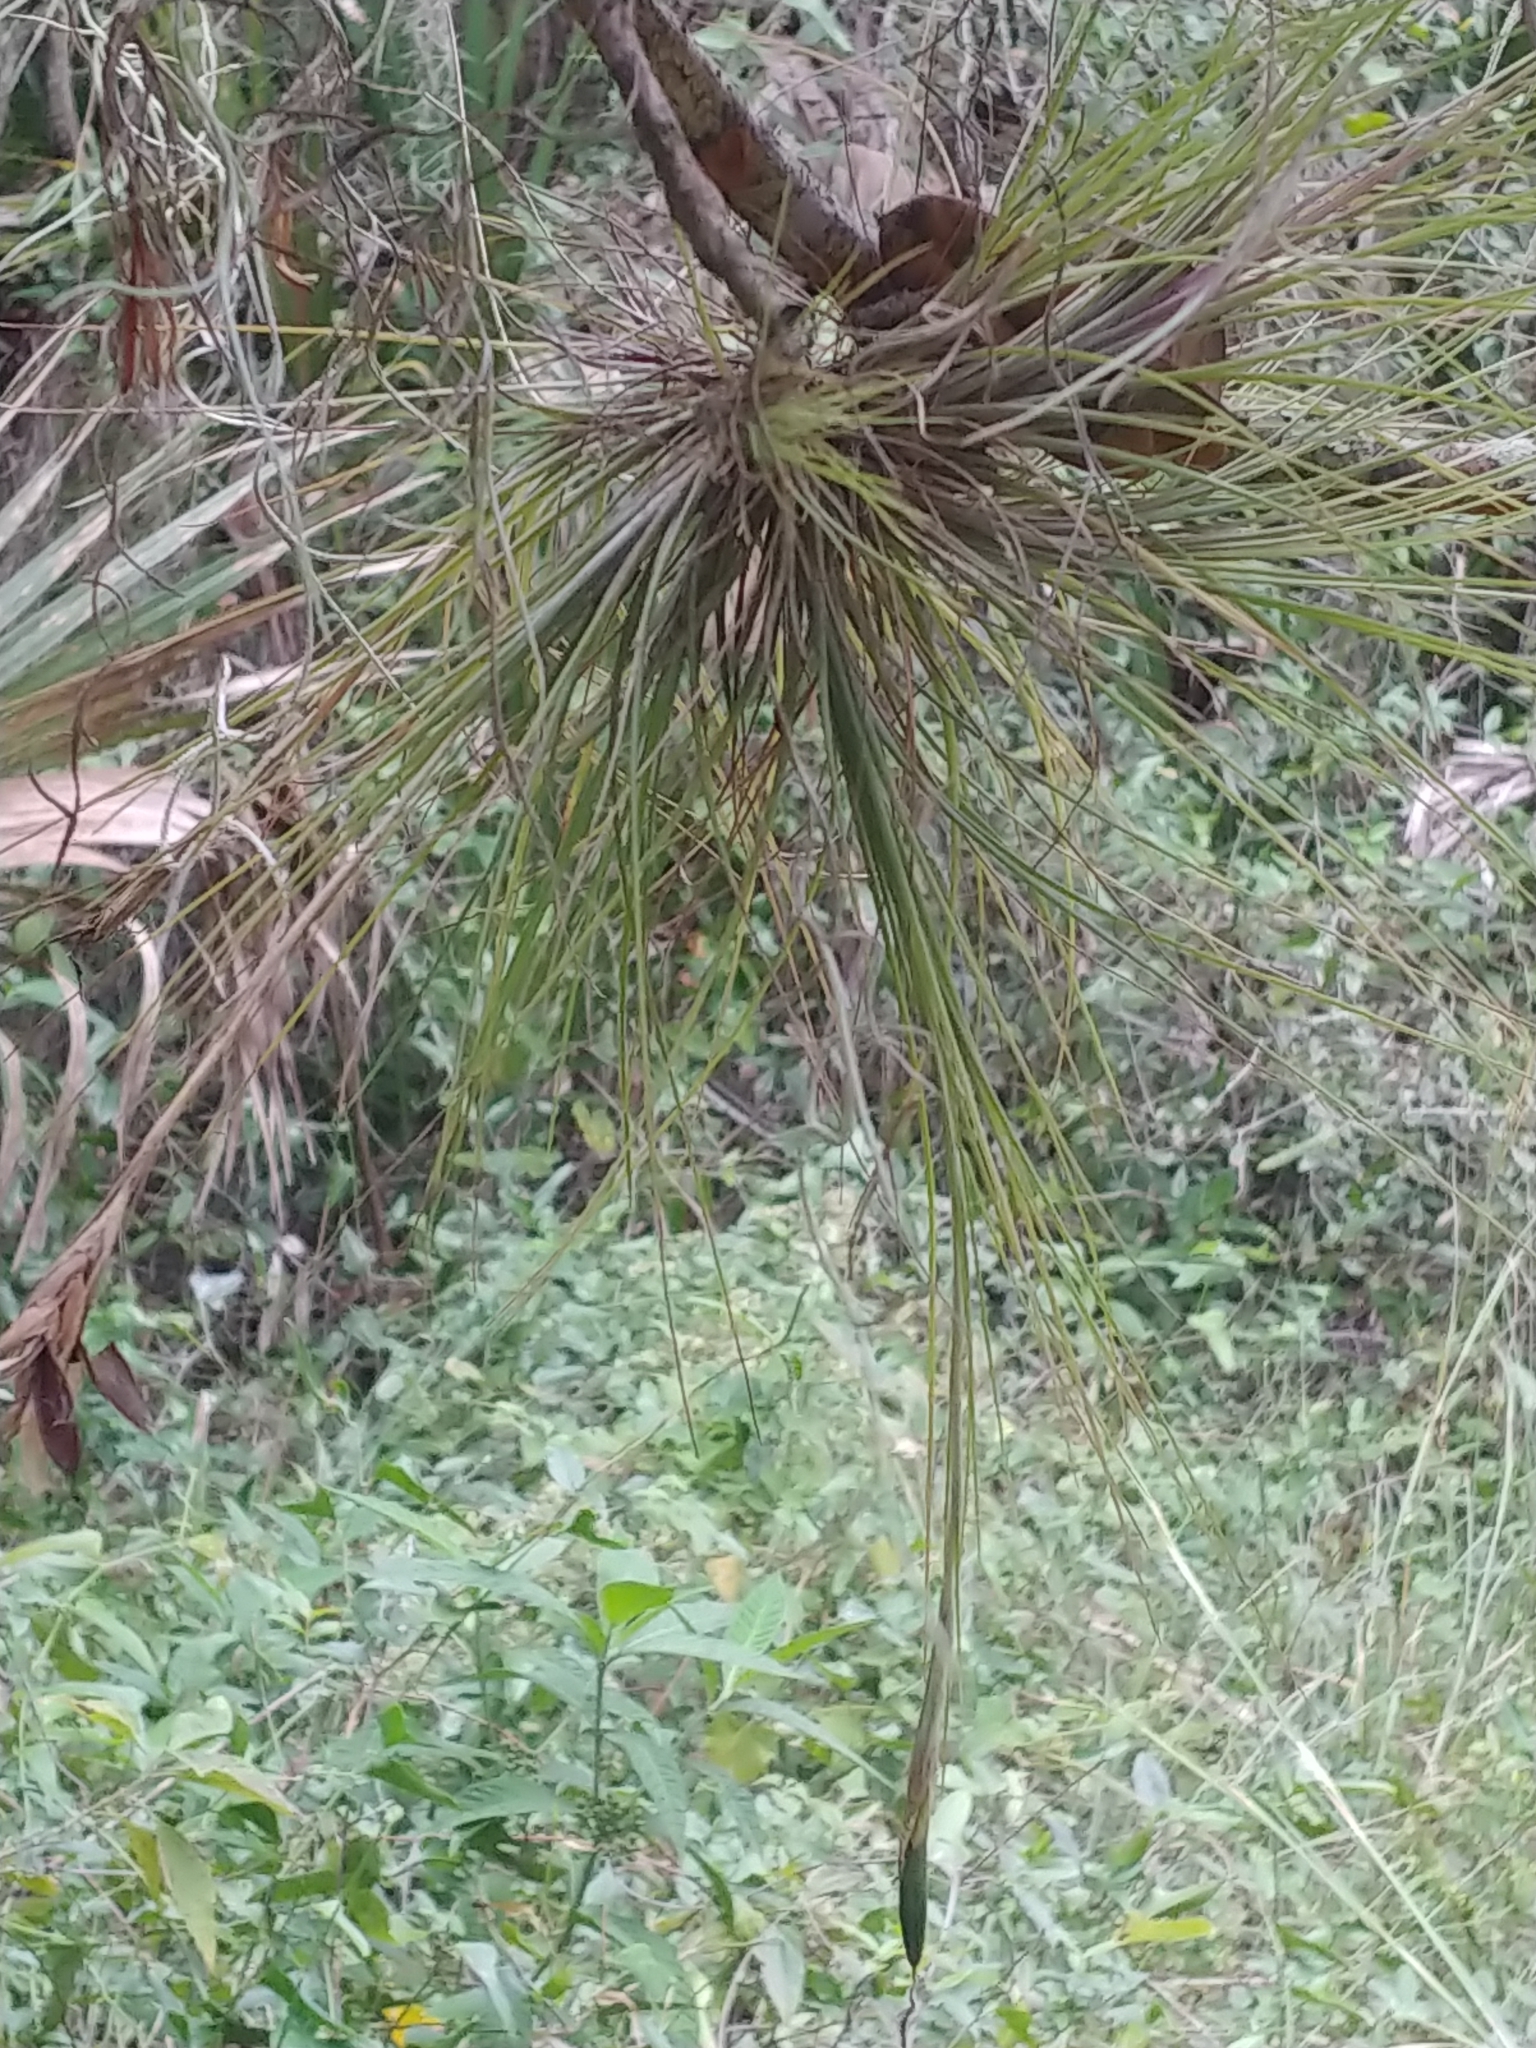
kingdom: Plantae
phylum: Tracheophyta
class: Liliopsida
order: Poales
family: Bromeliaceae
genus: Tillandsia
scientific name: Tillandsia setacea
